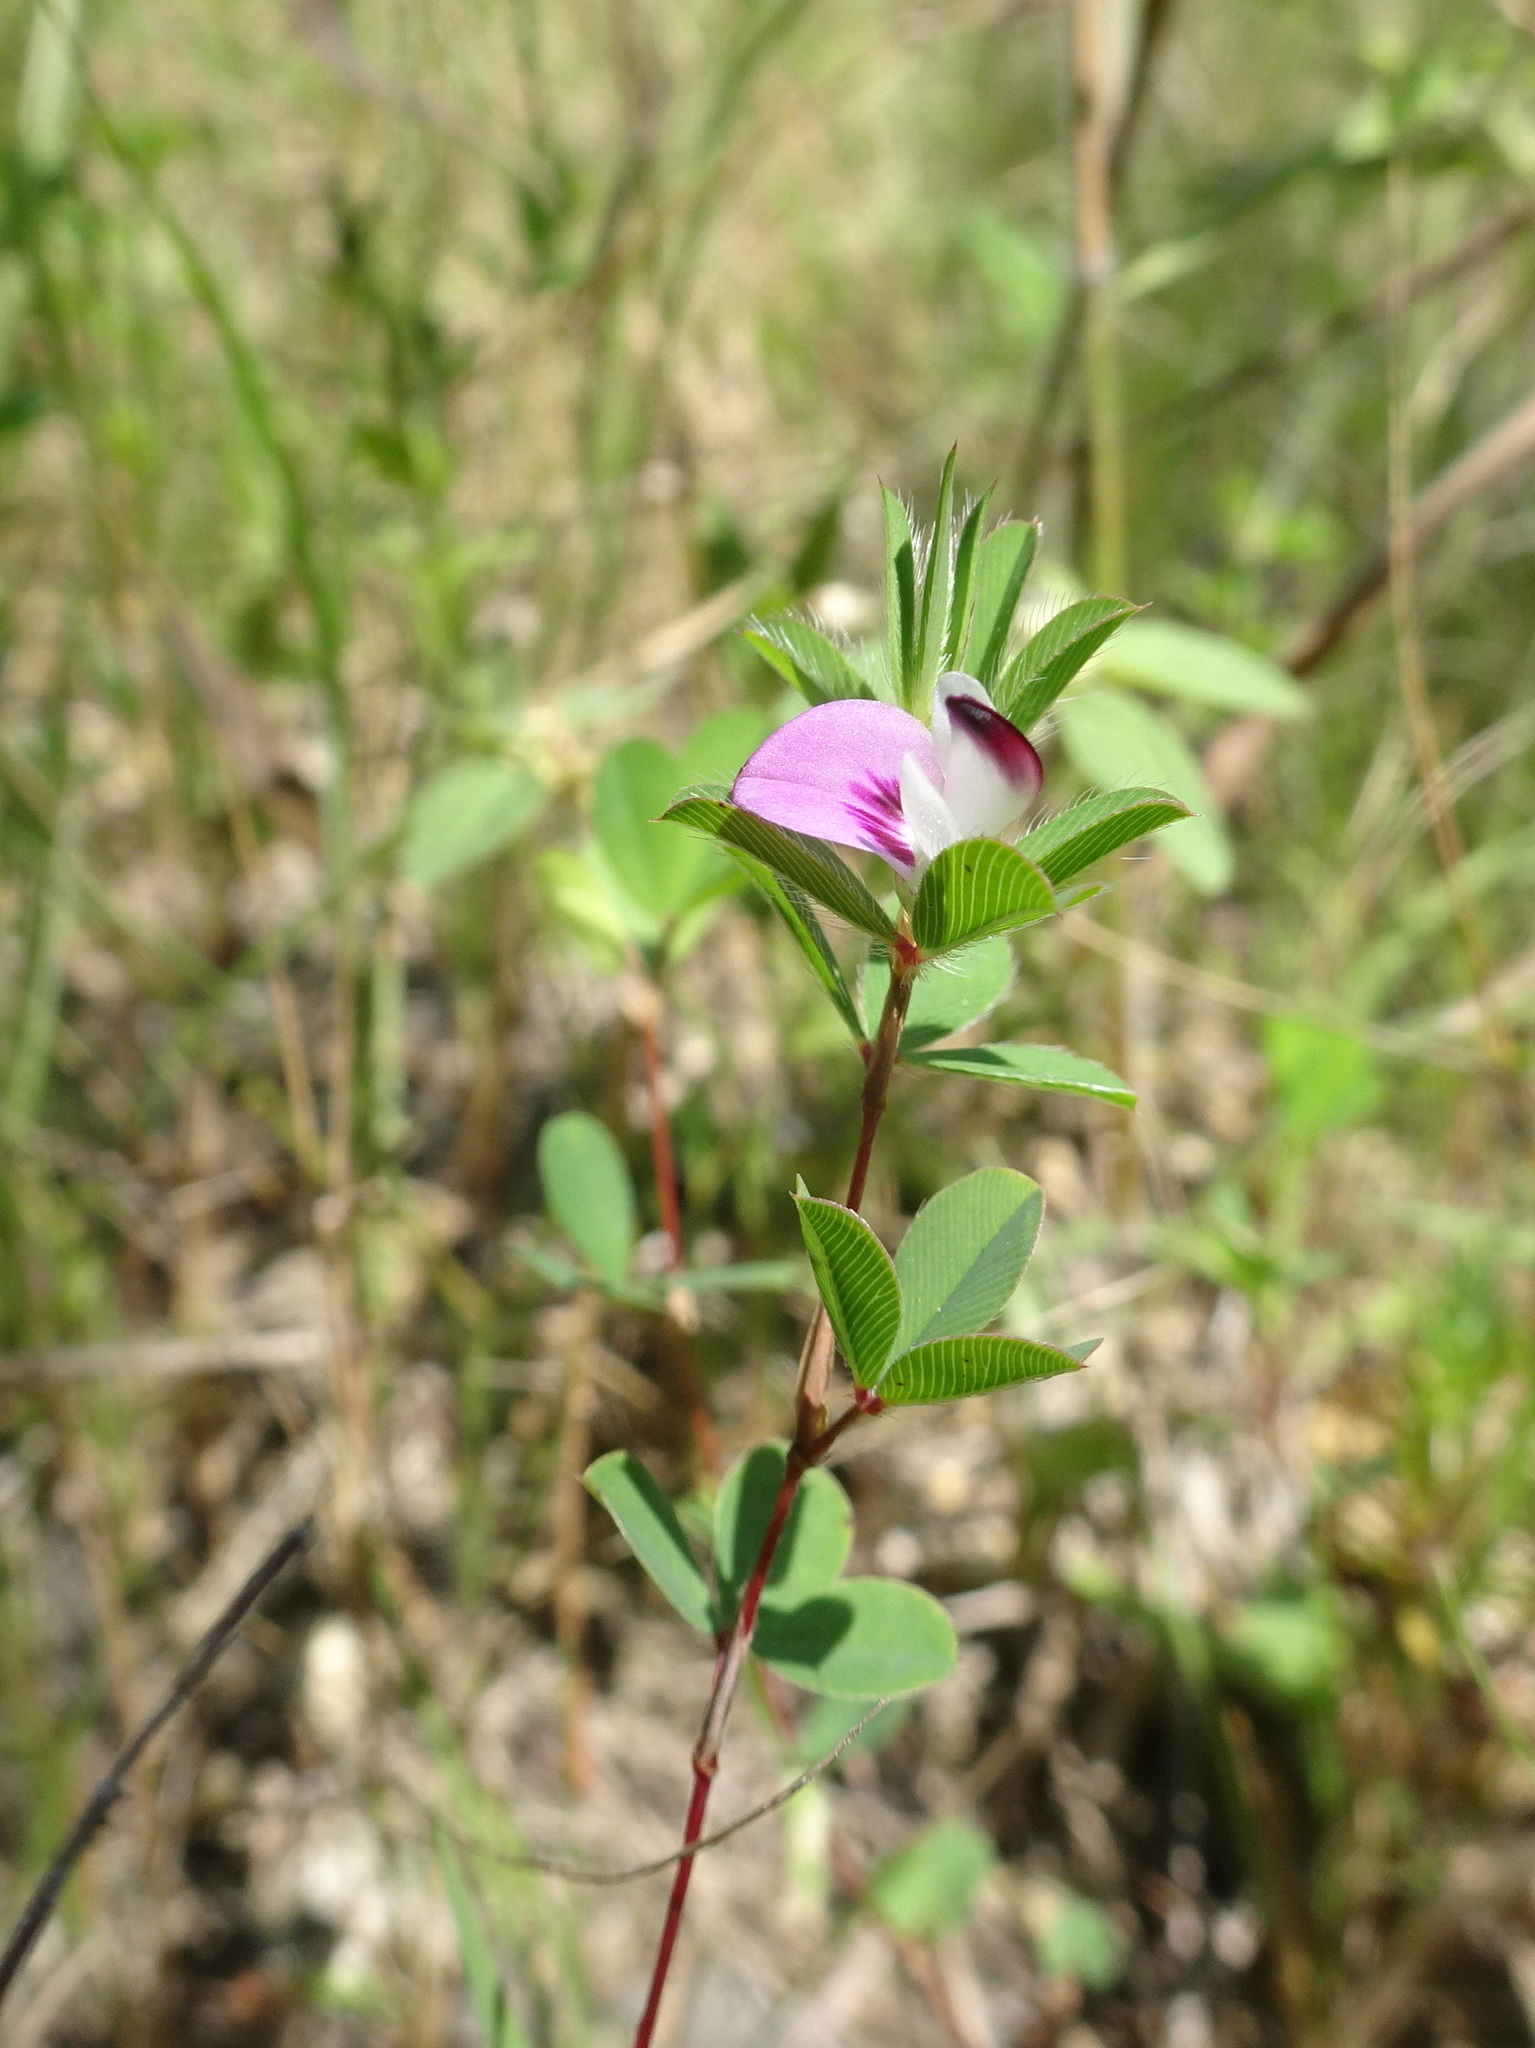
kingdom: Plantae
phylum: Tracheophyta
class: Magnoliopsida
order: Fabales
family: Fabaceae
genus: Kummerowia
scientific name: Kummerowia stipulacea
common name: Korean clover
